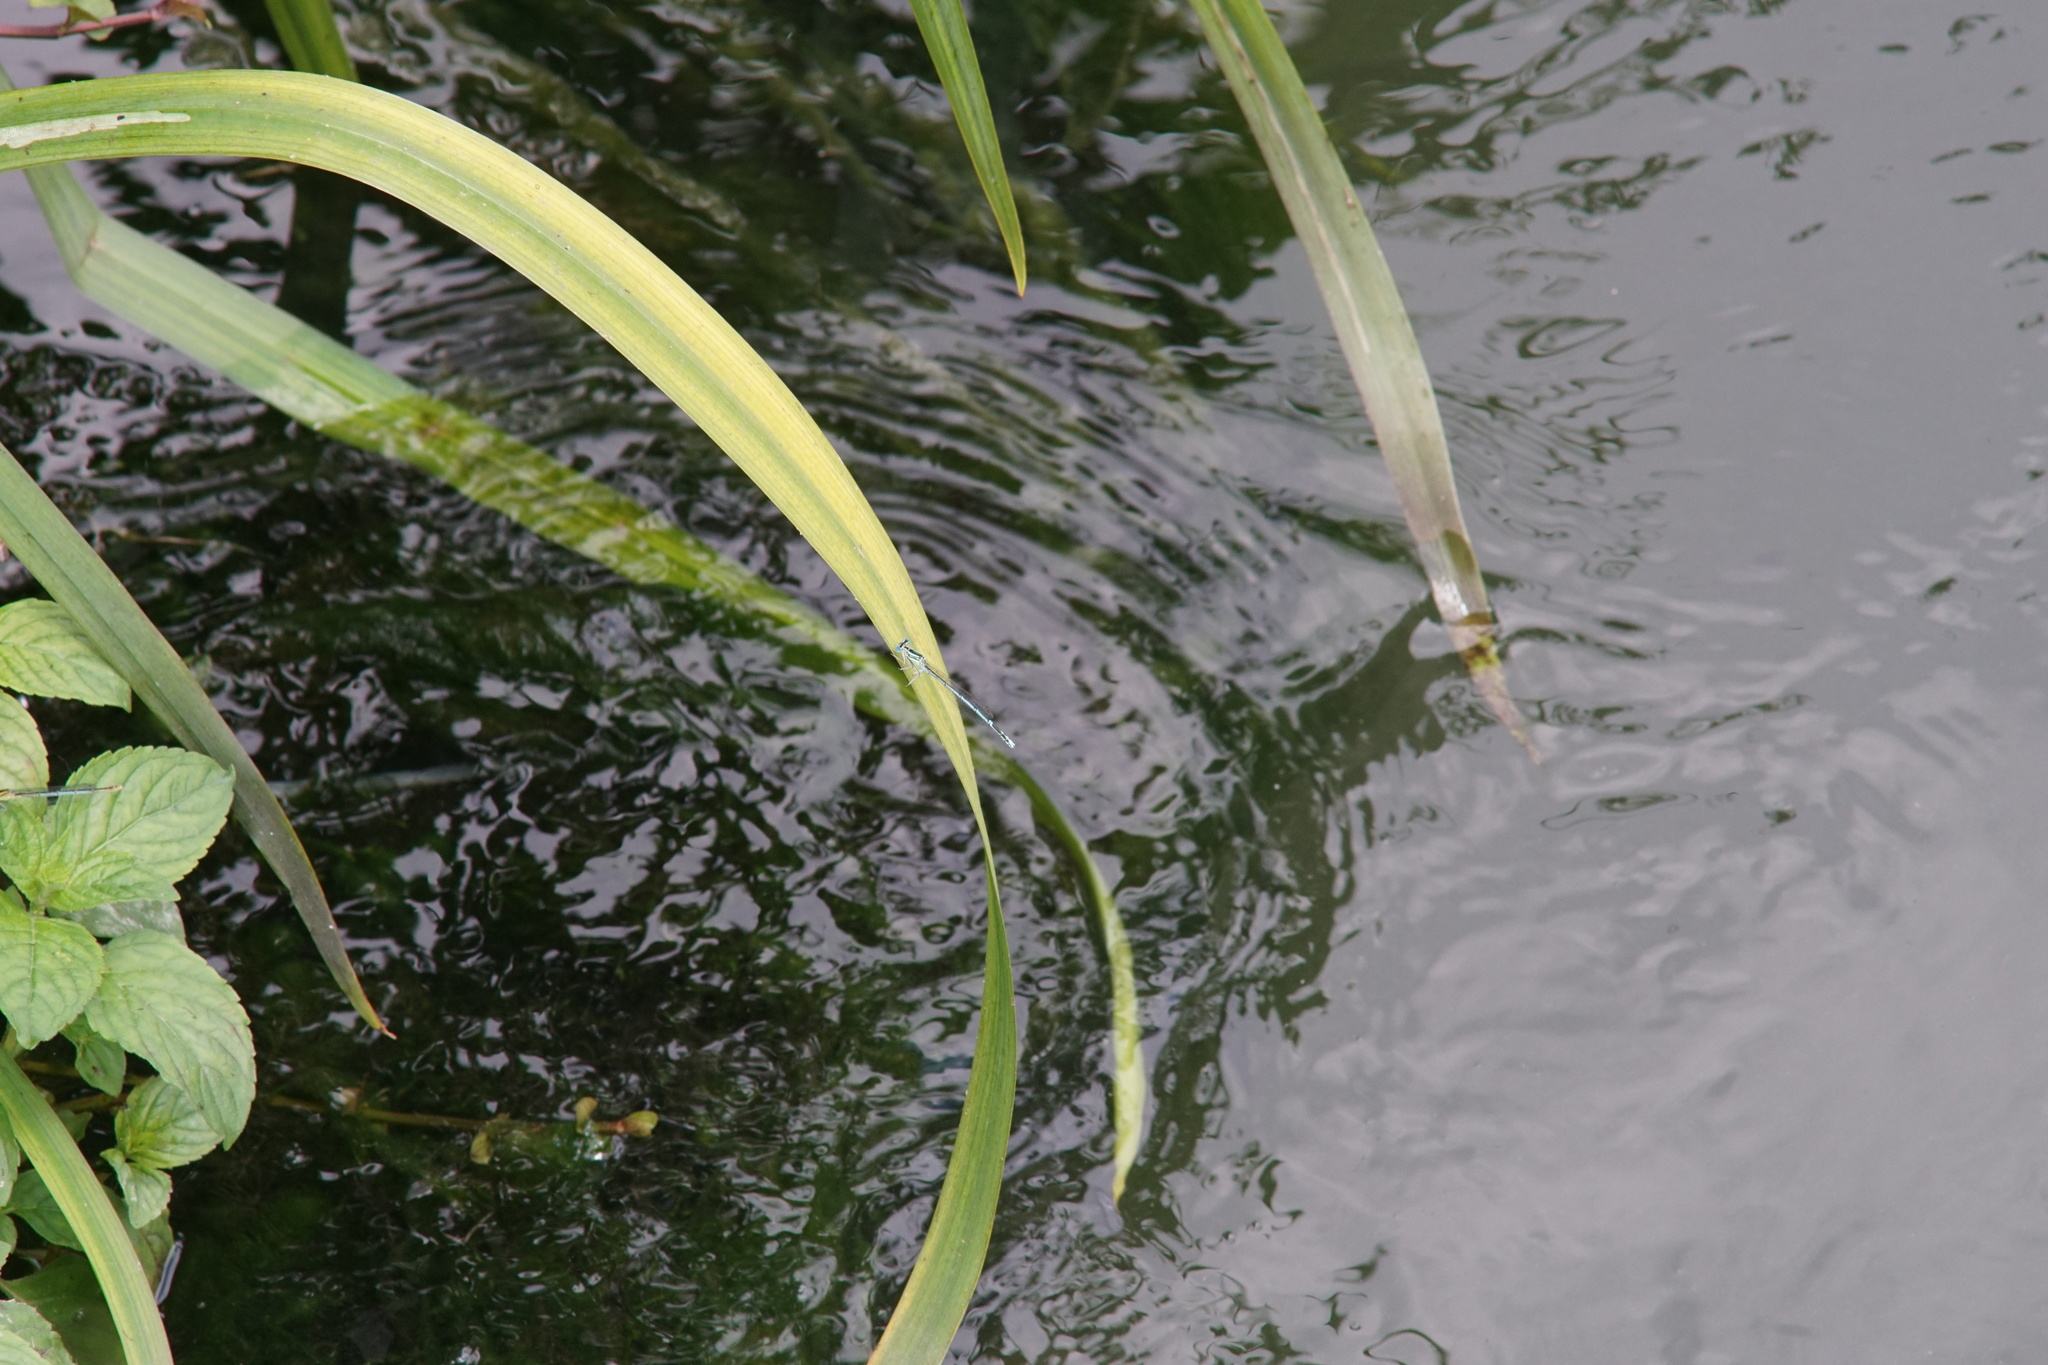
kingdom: Animalia
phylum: Arthropoda
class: Insecta
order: Odonata
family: Platycnemididae
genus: Platycnemis
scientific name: Platycnemis pennipes
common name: White-legged damselfly
